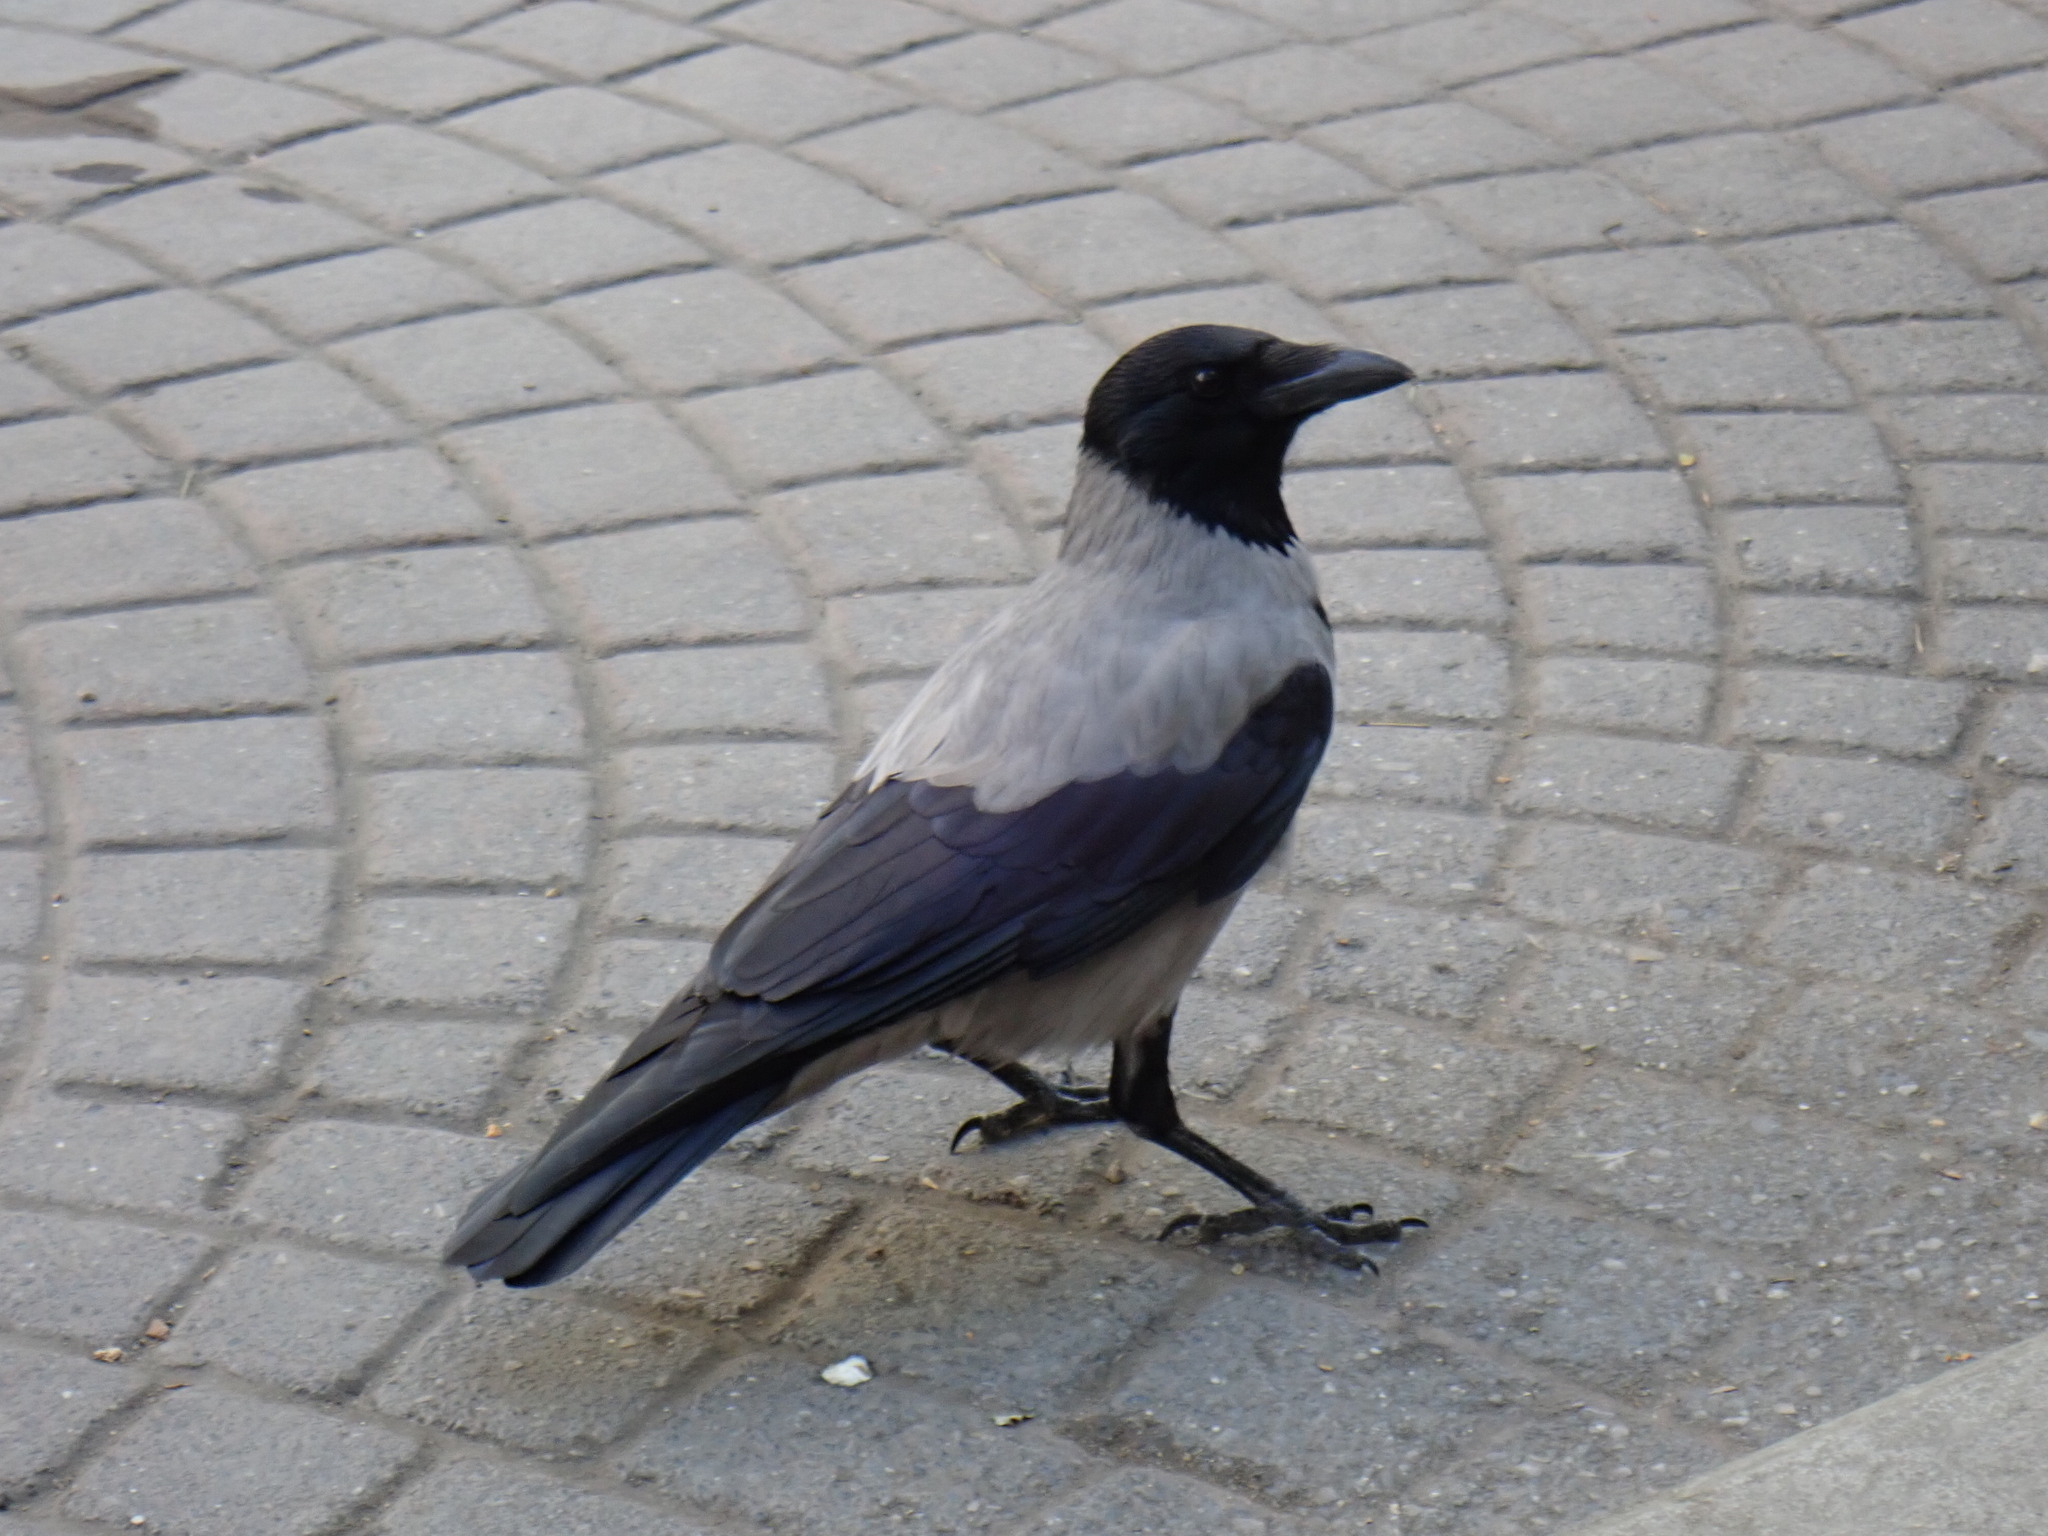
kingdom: Animalia
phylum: Chordata
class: Aves
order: Passeriformes
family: Corvidae
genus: Corvus
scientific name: Corvus cornix
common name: Hooded crow
